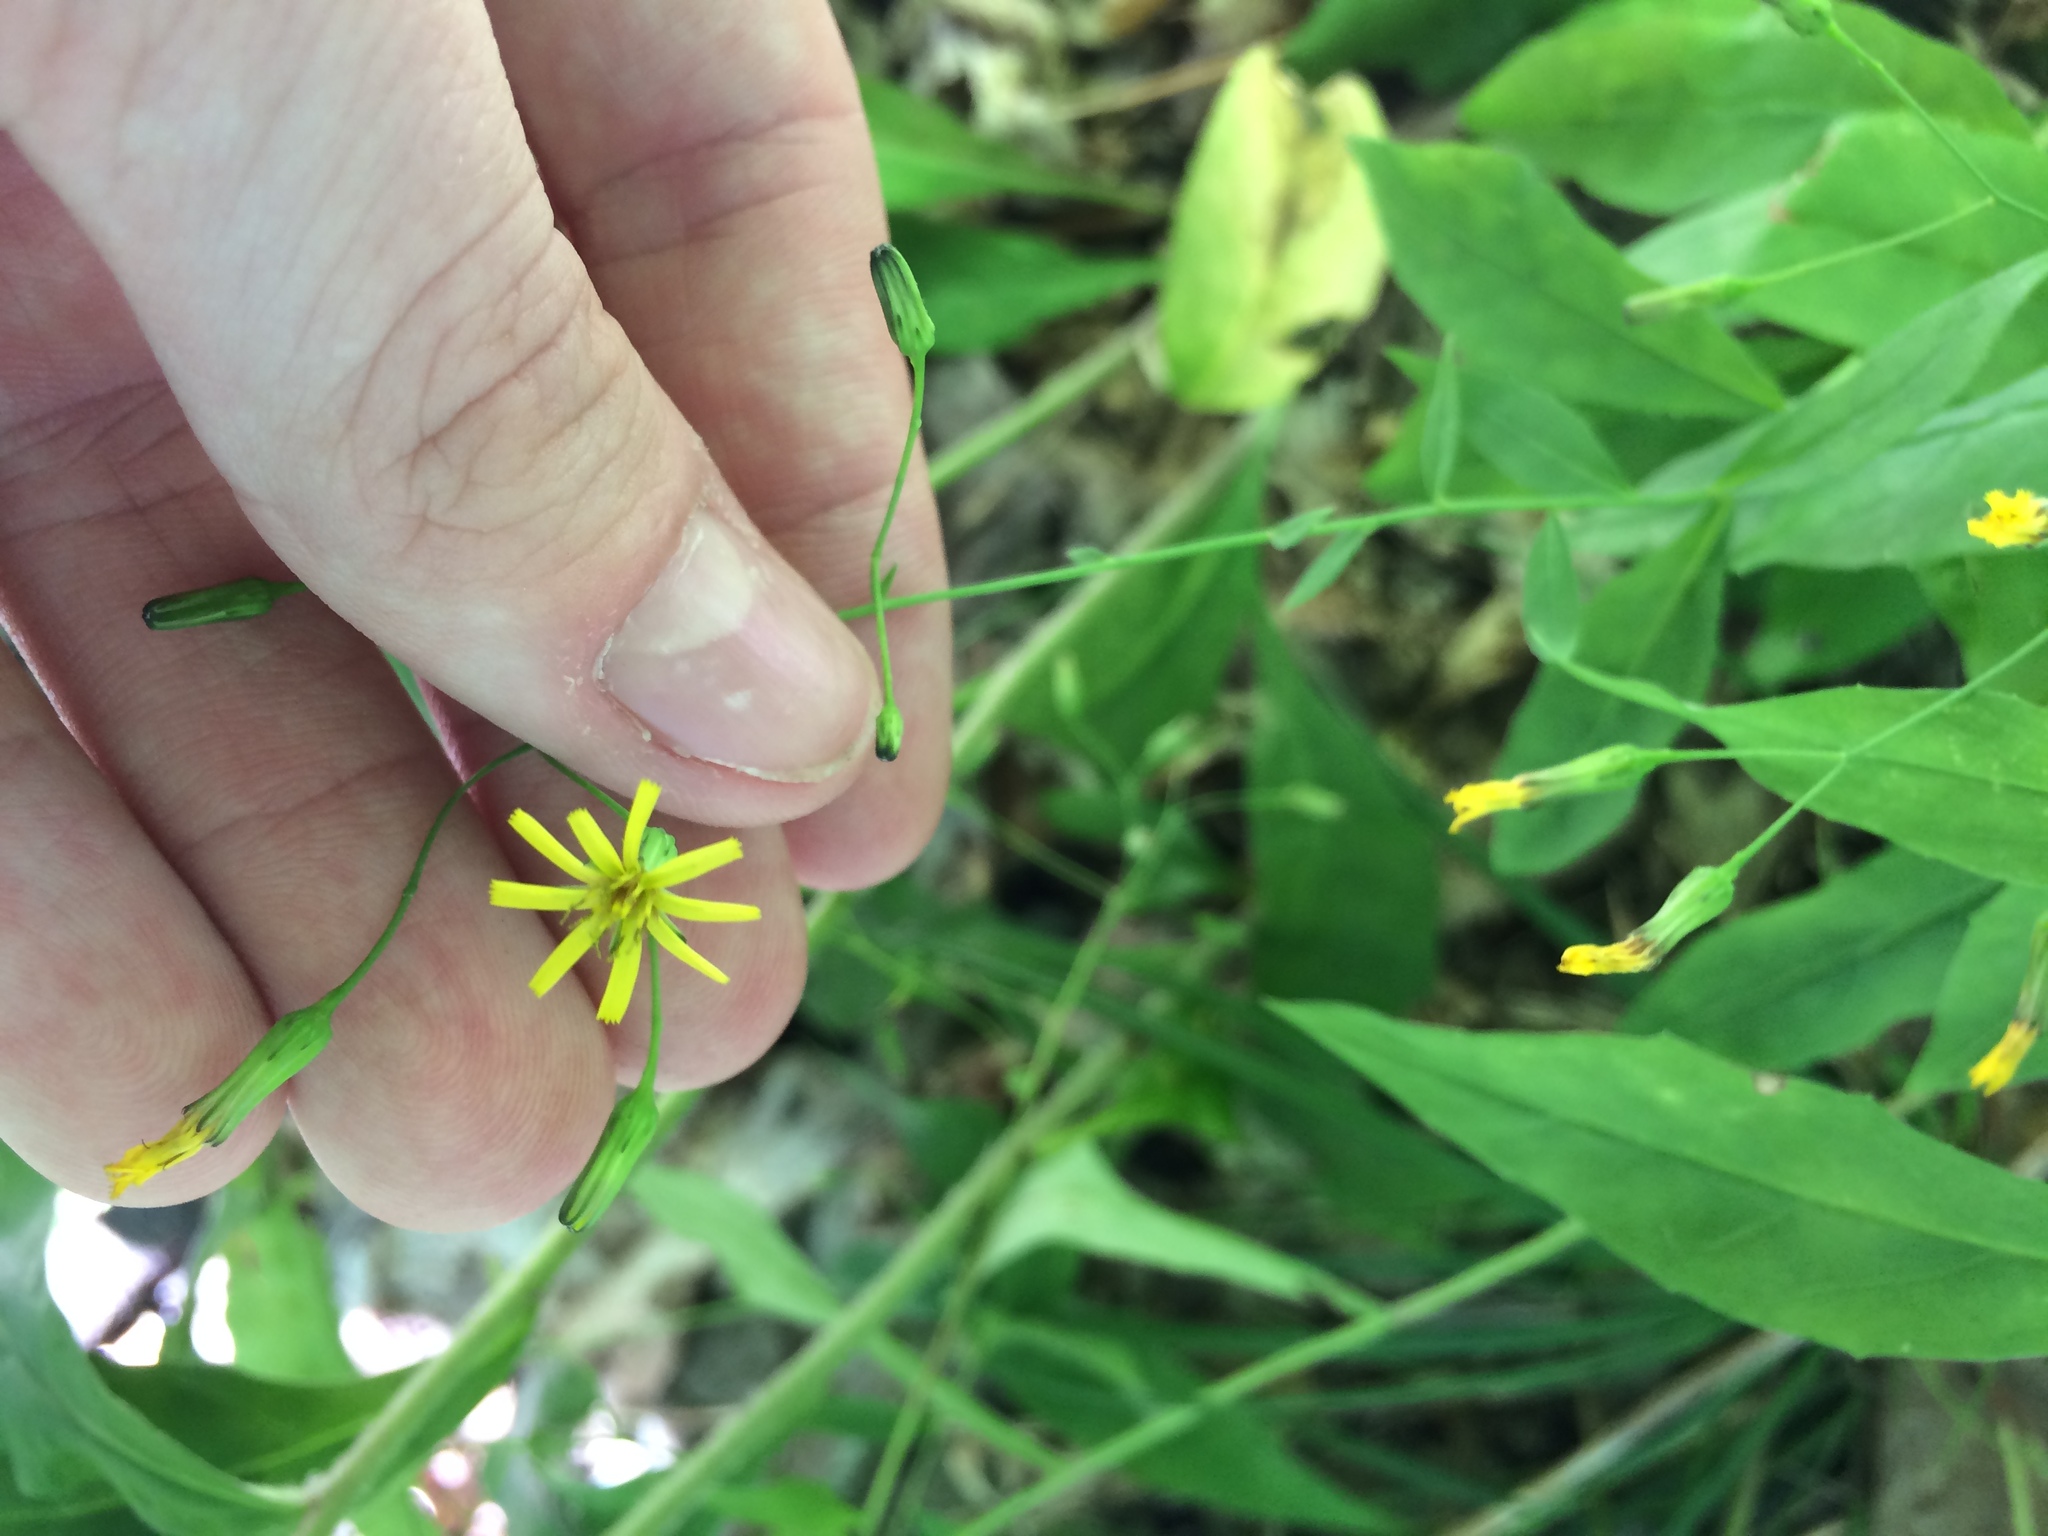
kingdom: Plantae
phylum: Tracheophyta
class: Magnoliopsida
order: Asterales
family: Asteraceae
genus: Hieracium
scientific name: Hieracium paniculatum
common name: Allegheny hawkweed
